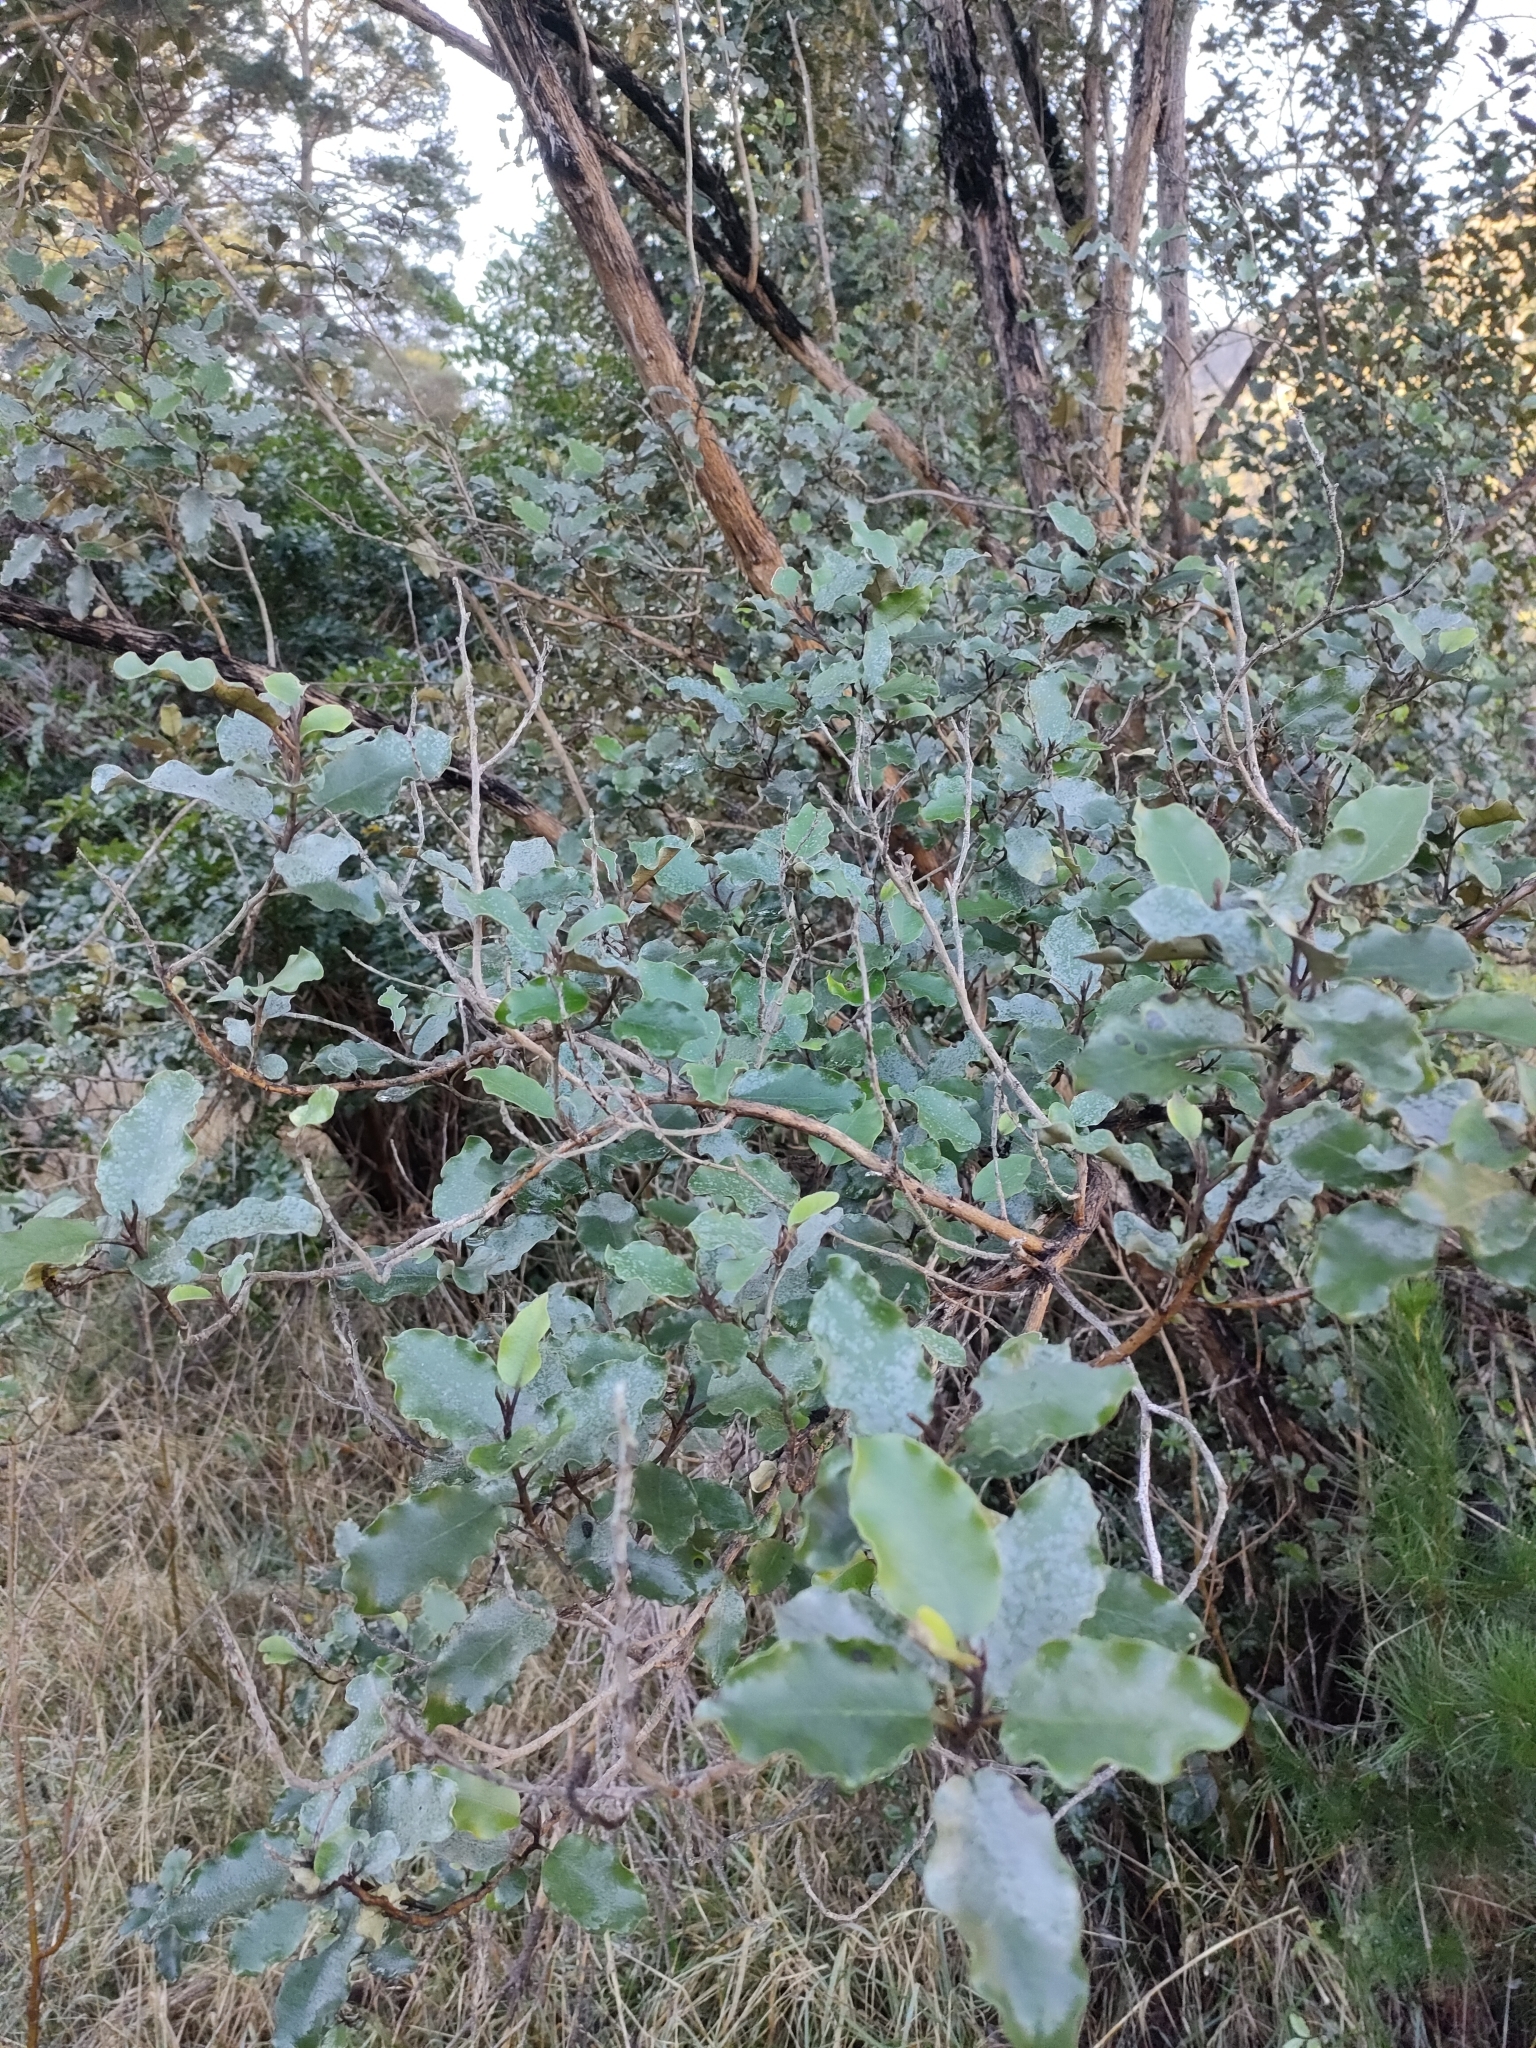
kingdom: Plantae
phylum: Tracheophyta
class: Magnoliopsida
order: Asterales
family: Asteraceae
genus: Olearia
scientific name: Olearia paniculata
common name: Akiraho
